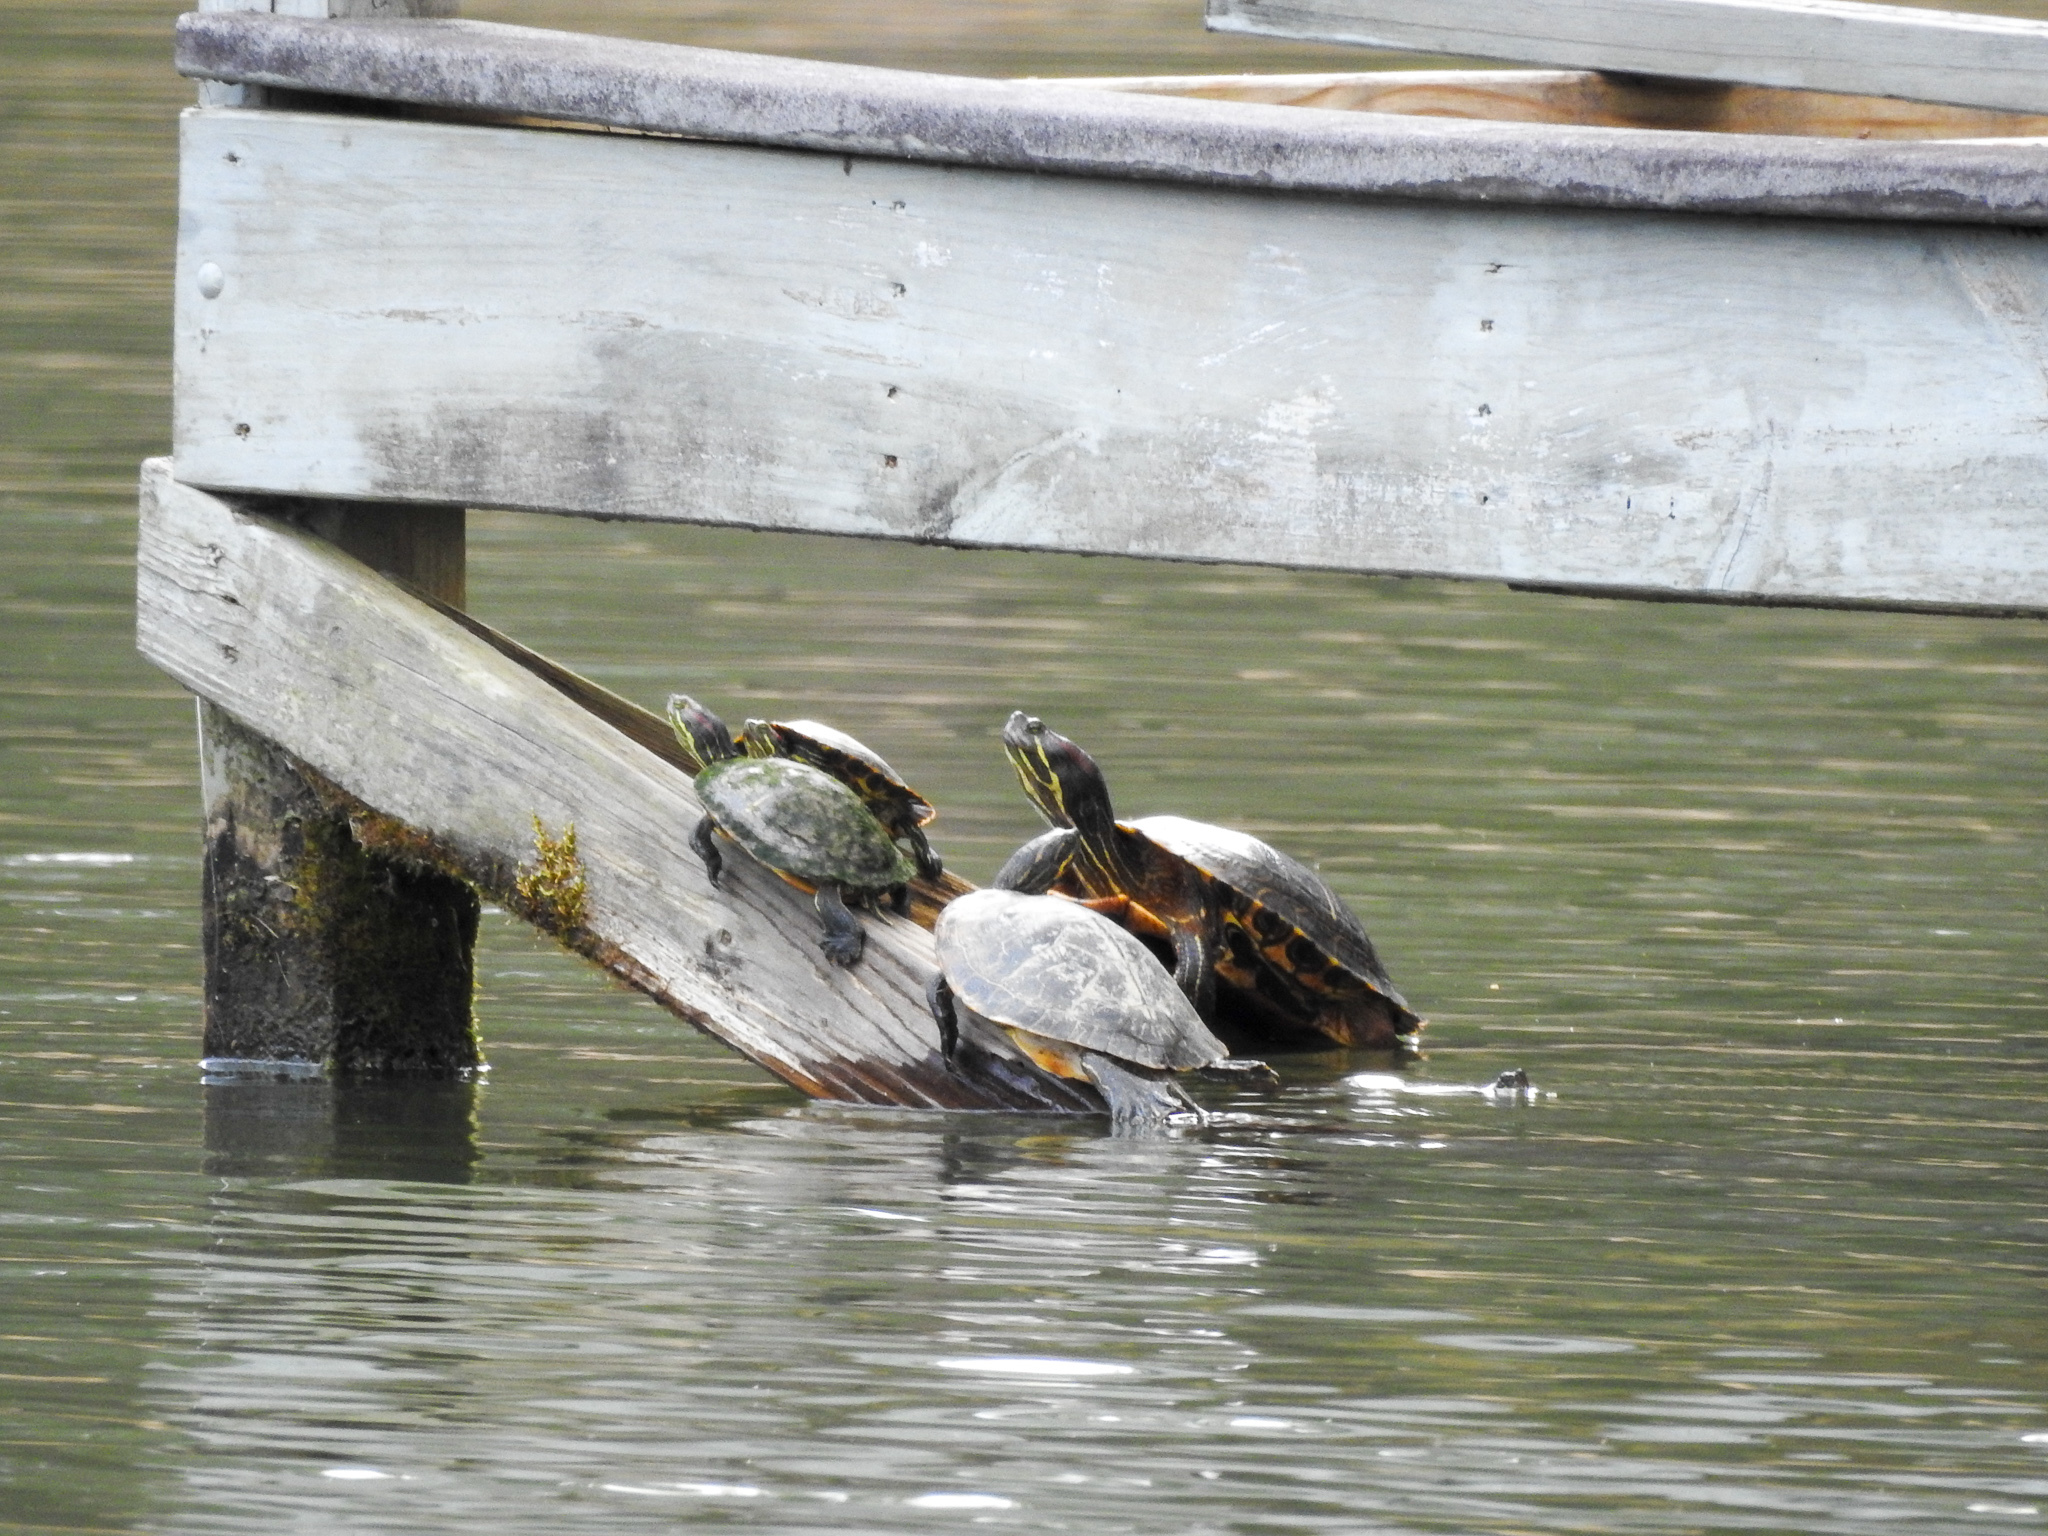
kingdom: Animalia
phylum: Chordata
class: Testudines
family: Emydidae
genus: Trachemys
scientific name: Trachemys scripta
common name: Slider
